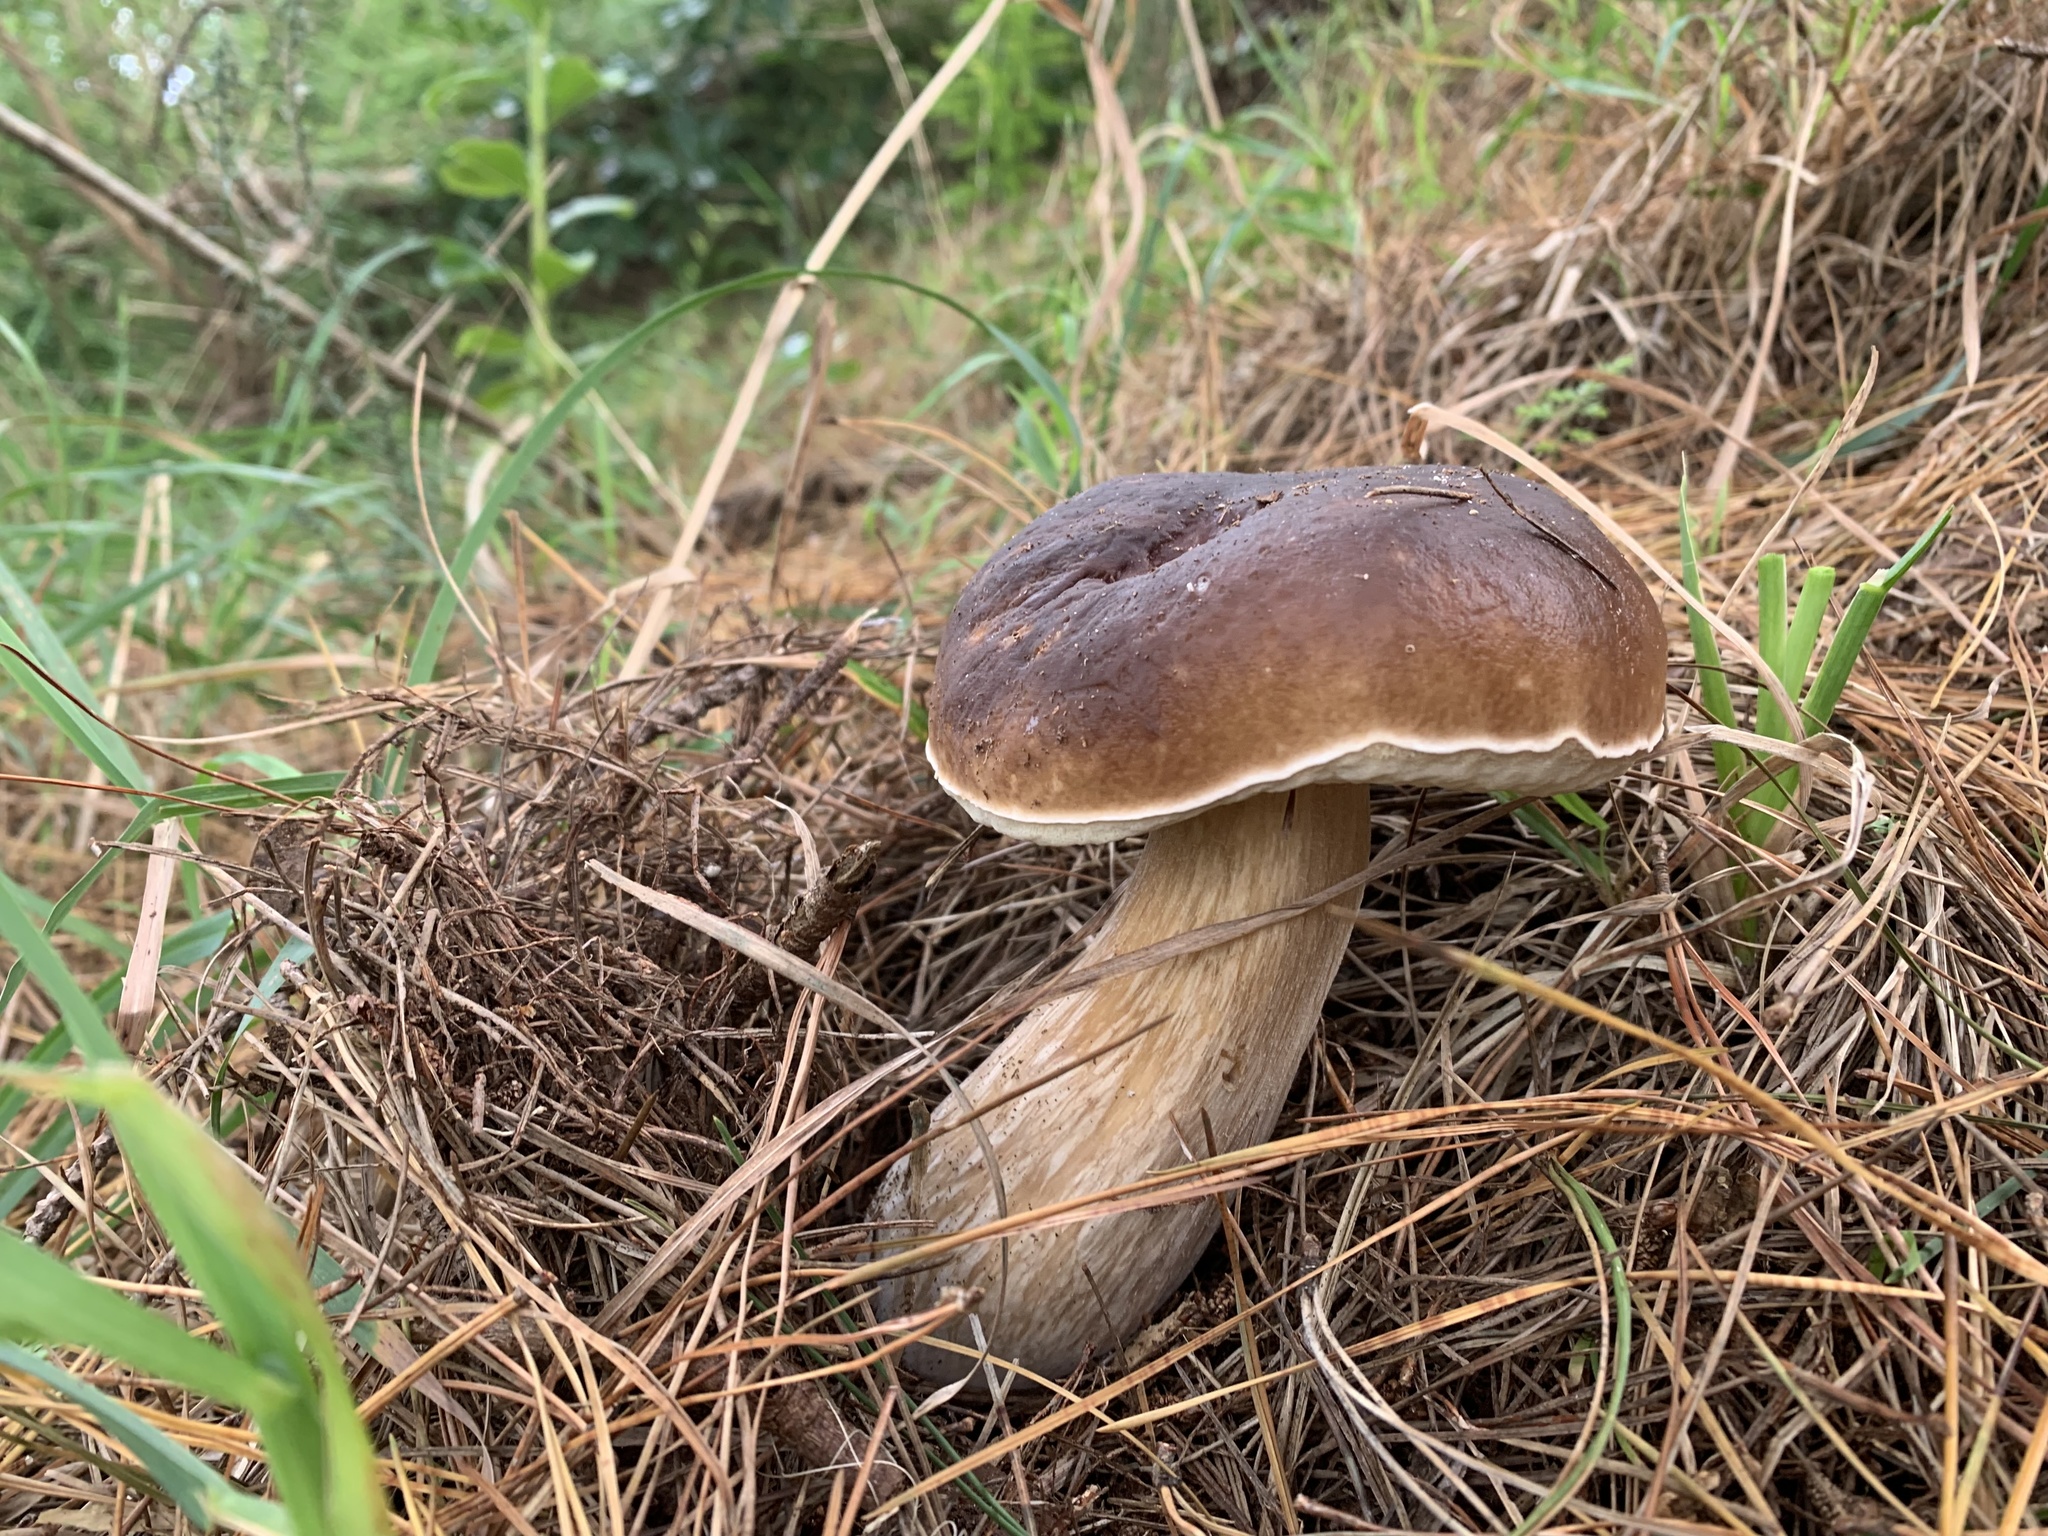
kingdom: Fungi
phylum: Basidiomycota
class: Agaricomycetes
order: Boletales
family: Boletaceae
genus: Boletus
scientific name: Boletus edulis
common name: Cep
